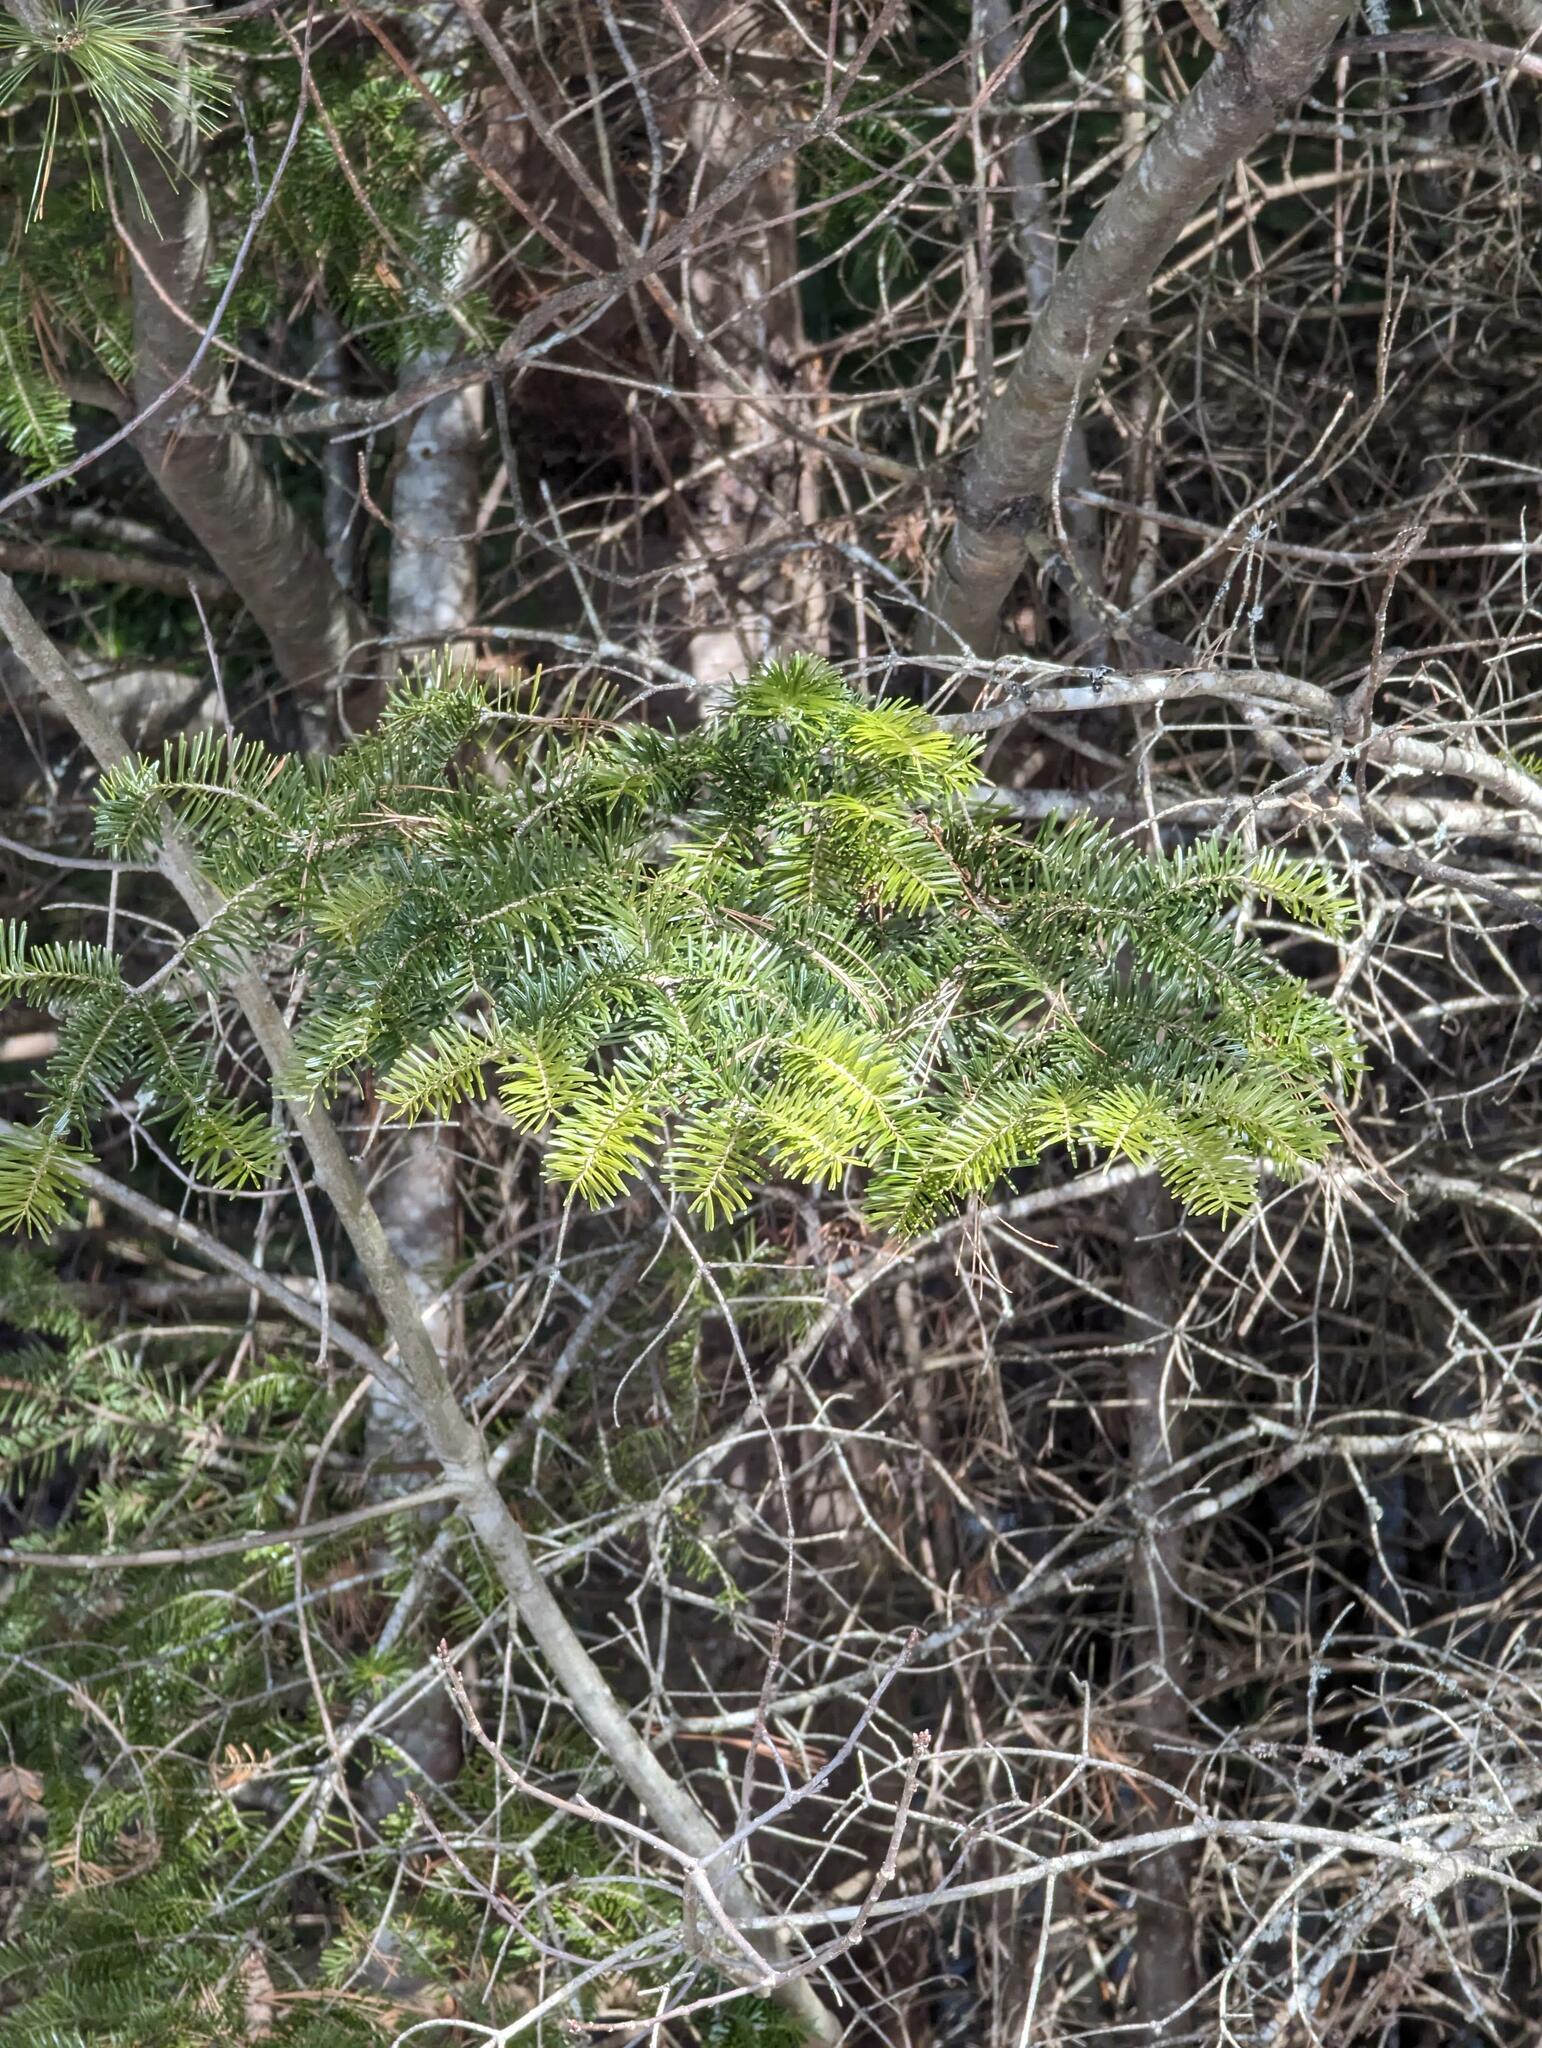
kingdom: Plantae
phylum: Tracheophyta
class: Pinopsida
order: Pinales
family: Pinaceae
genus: Abies
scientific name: Abies balsamea
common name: Balsam fir
